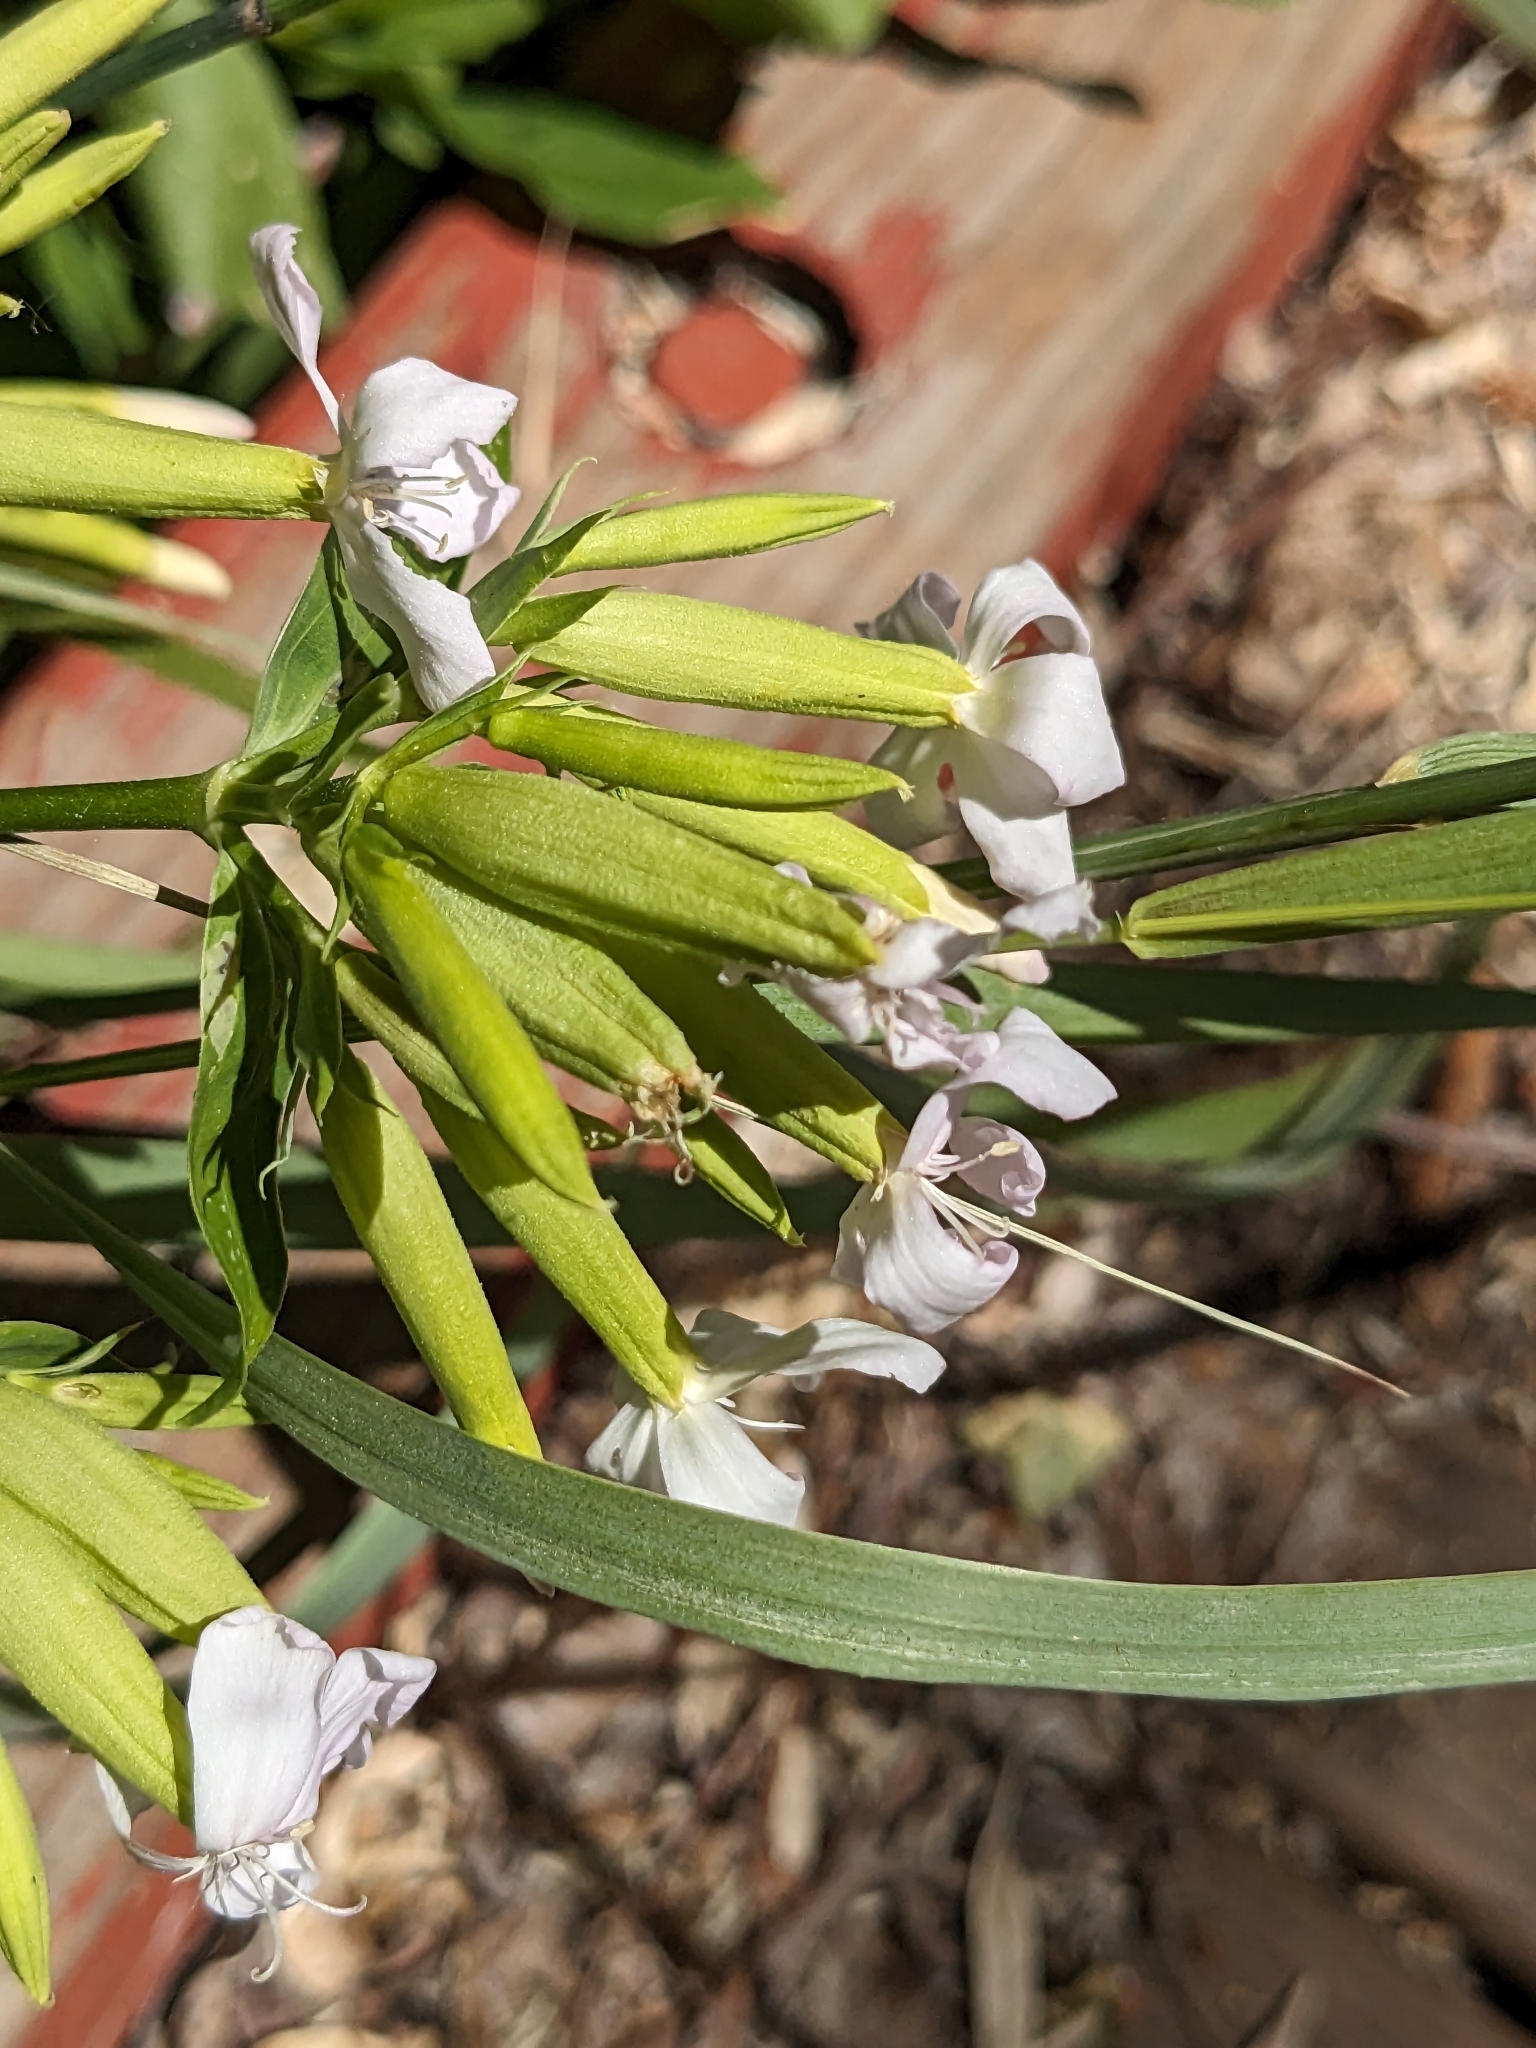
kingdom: Plantae
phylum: Tracheophyta
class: Magnoliopsida
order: Caryophyllales
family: Caryophyllaceae
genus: Saponaria
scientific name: Saponaria officinalis
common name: Soapwort
